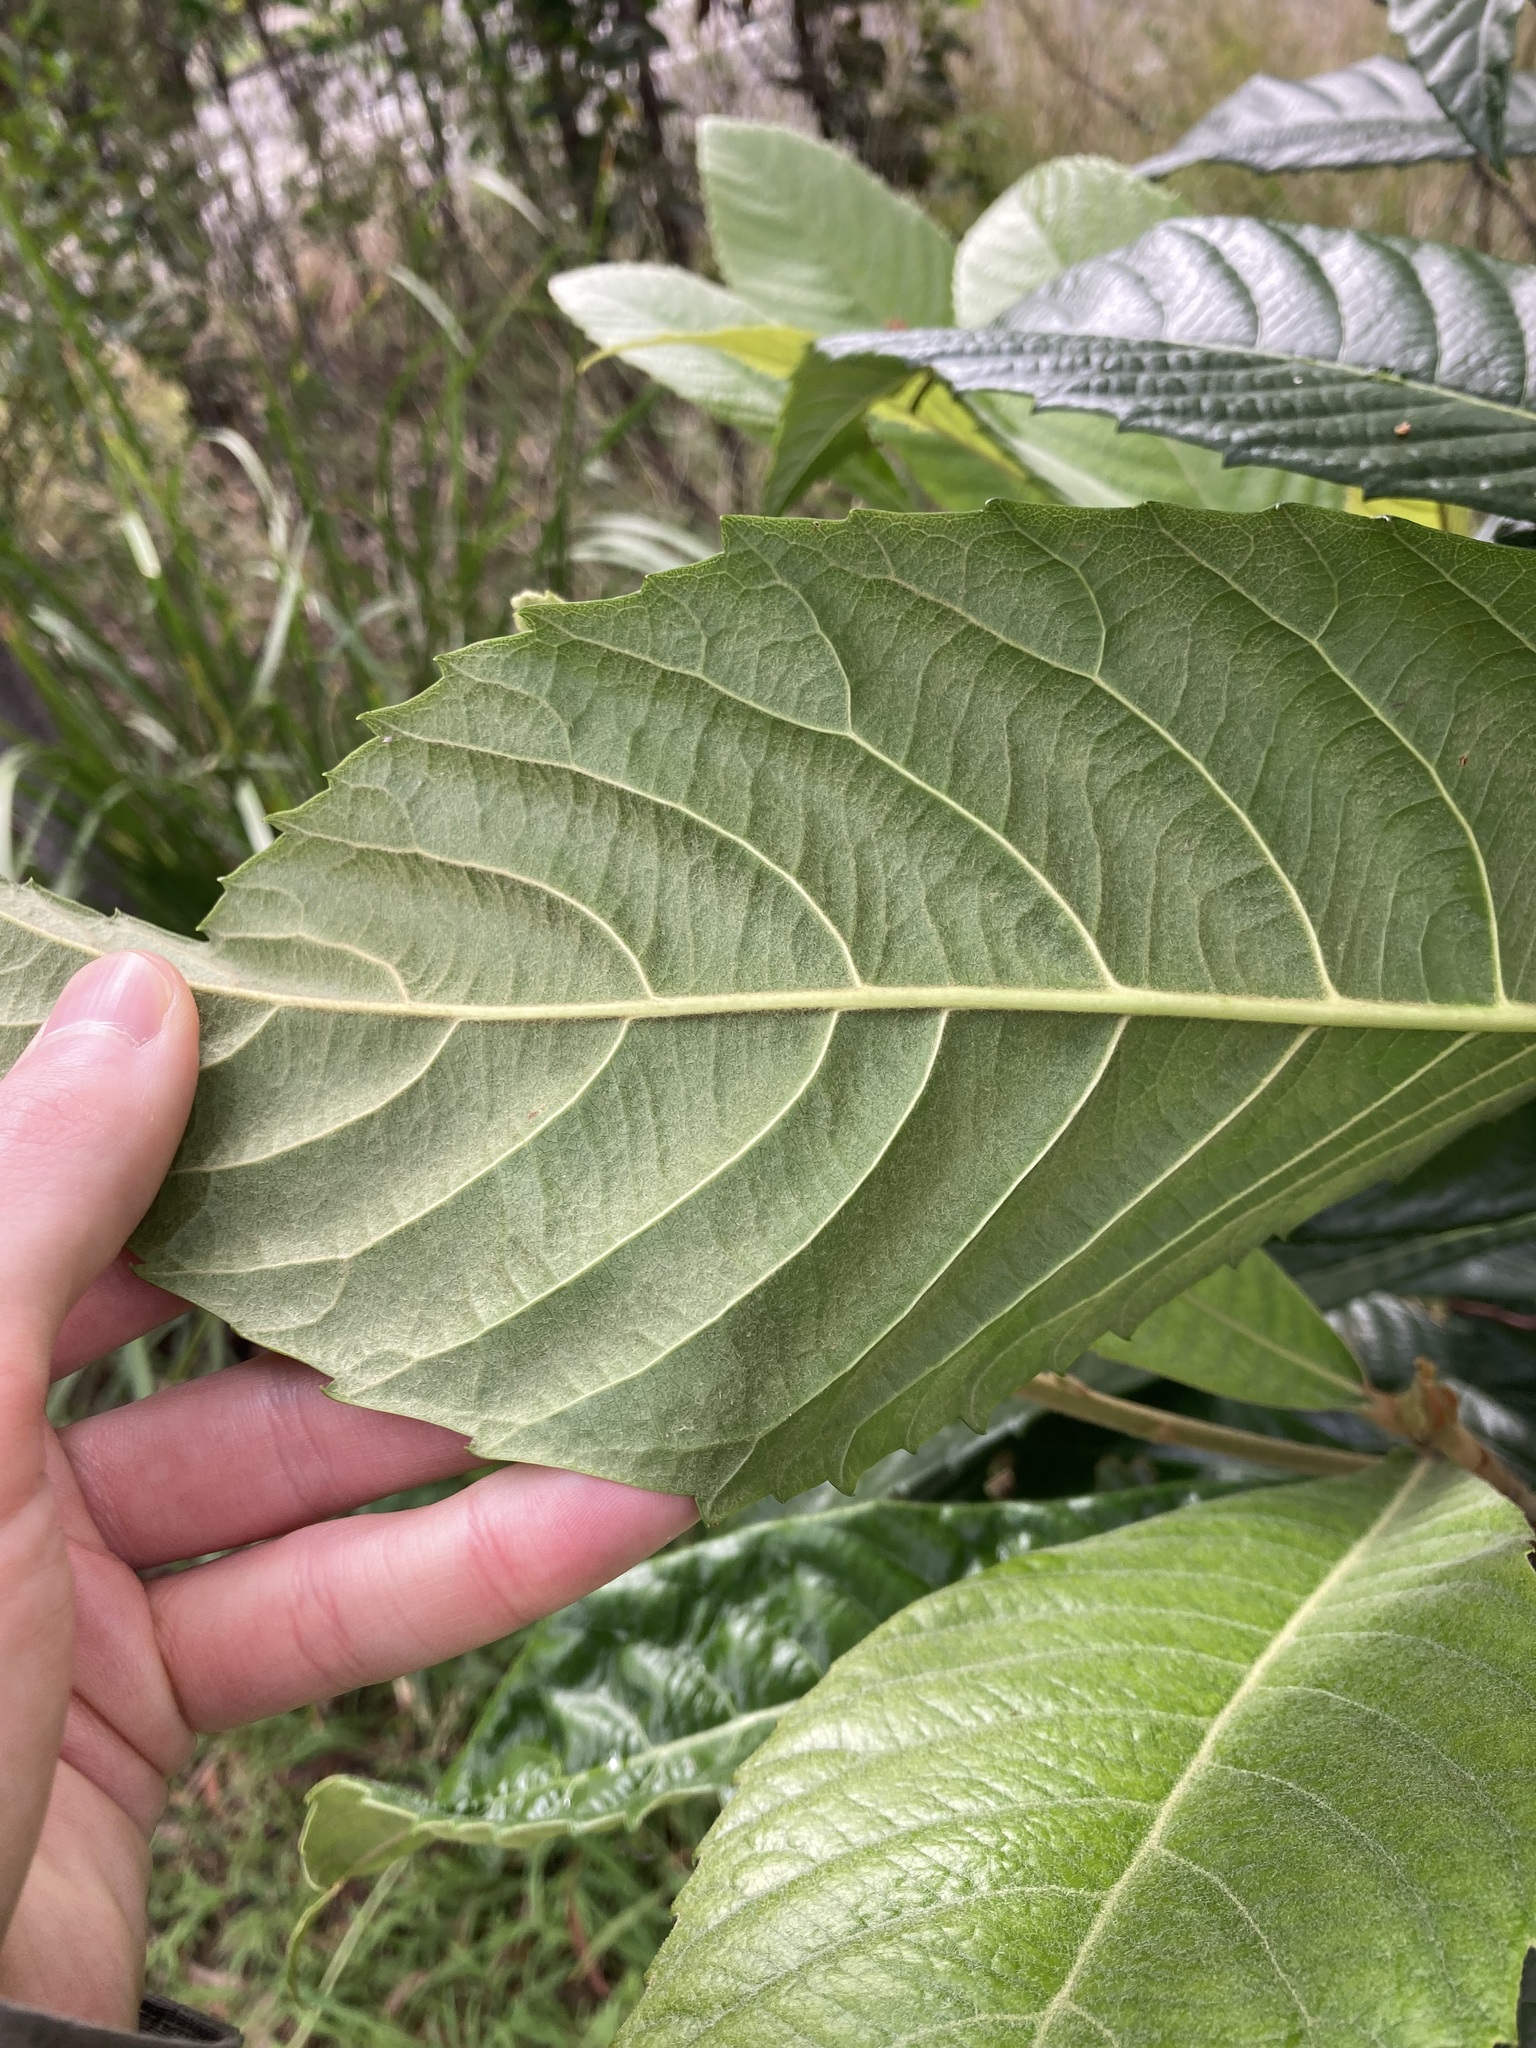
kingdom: Plantae
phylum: Tracheophyta
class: Magnoliopsida
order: Rosales
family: Rosaceae
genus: Rhaphiolepis
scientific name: Rhaphiolepis bibas
